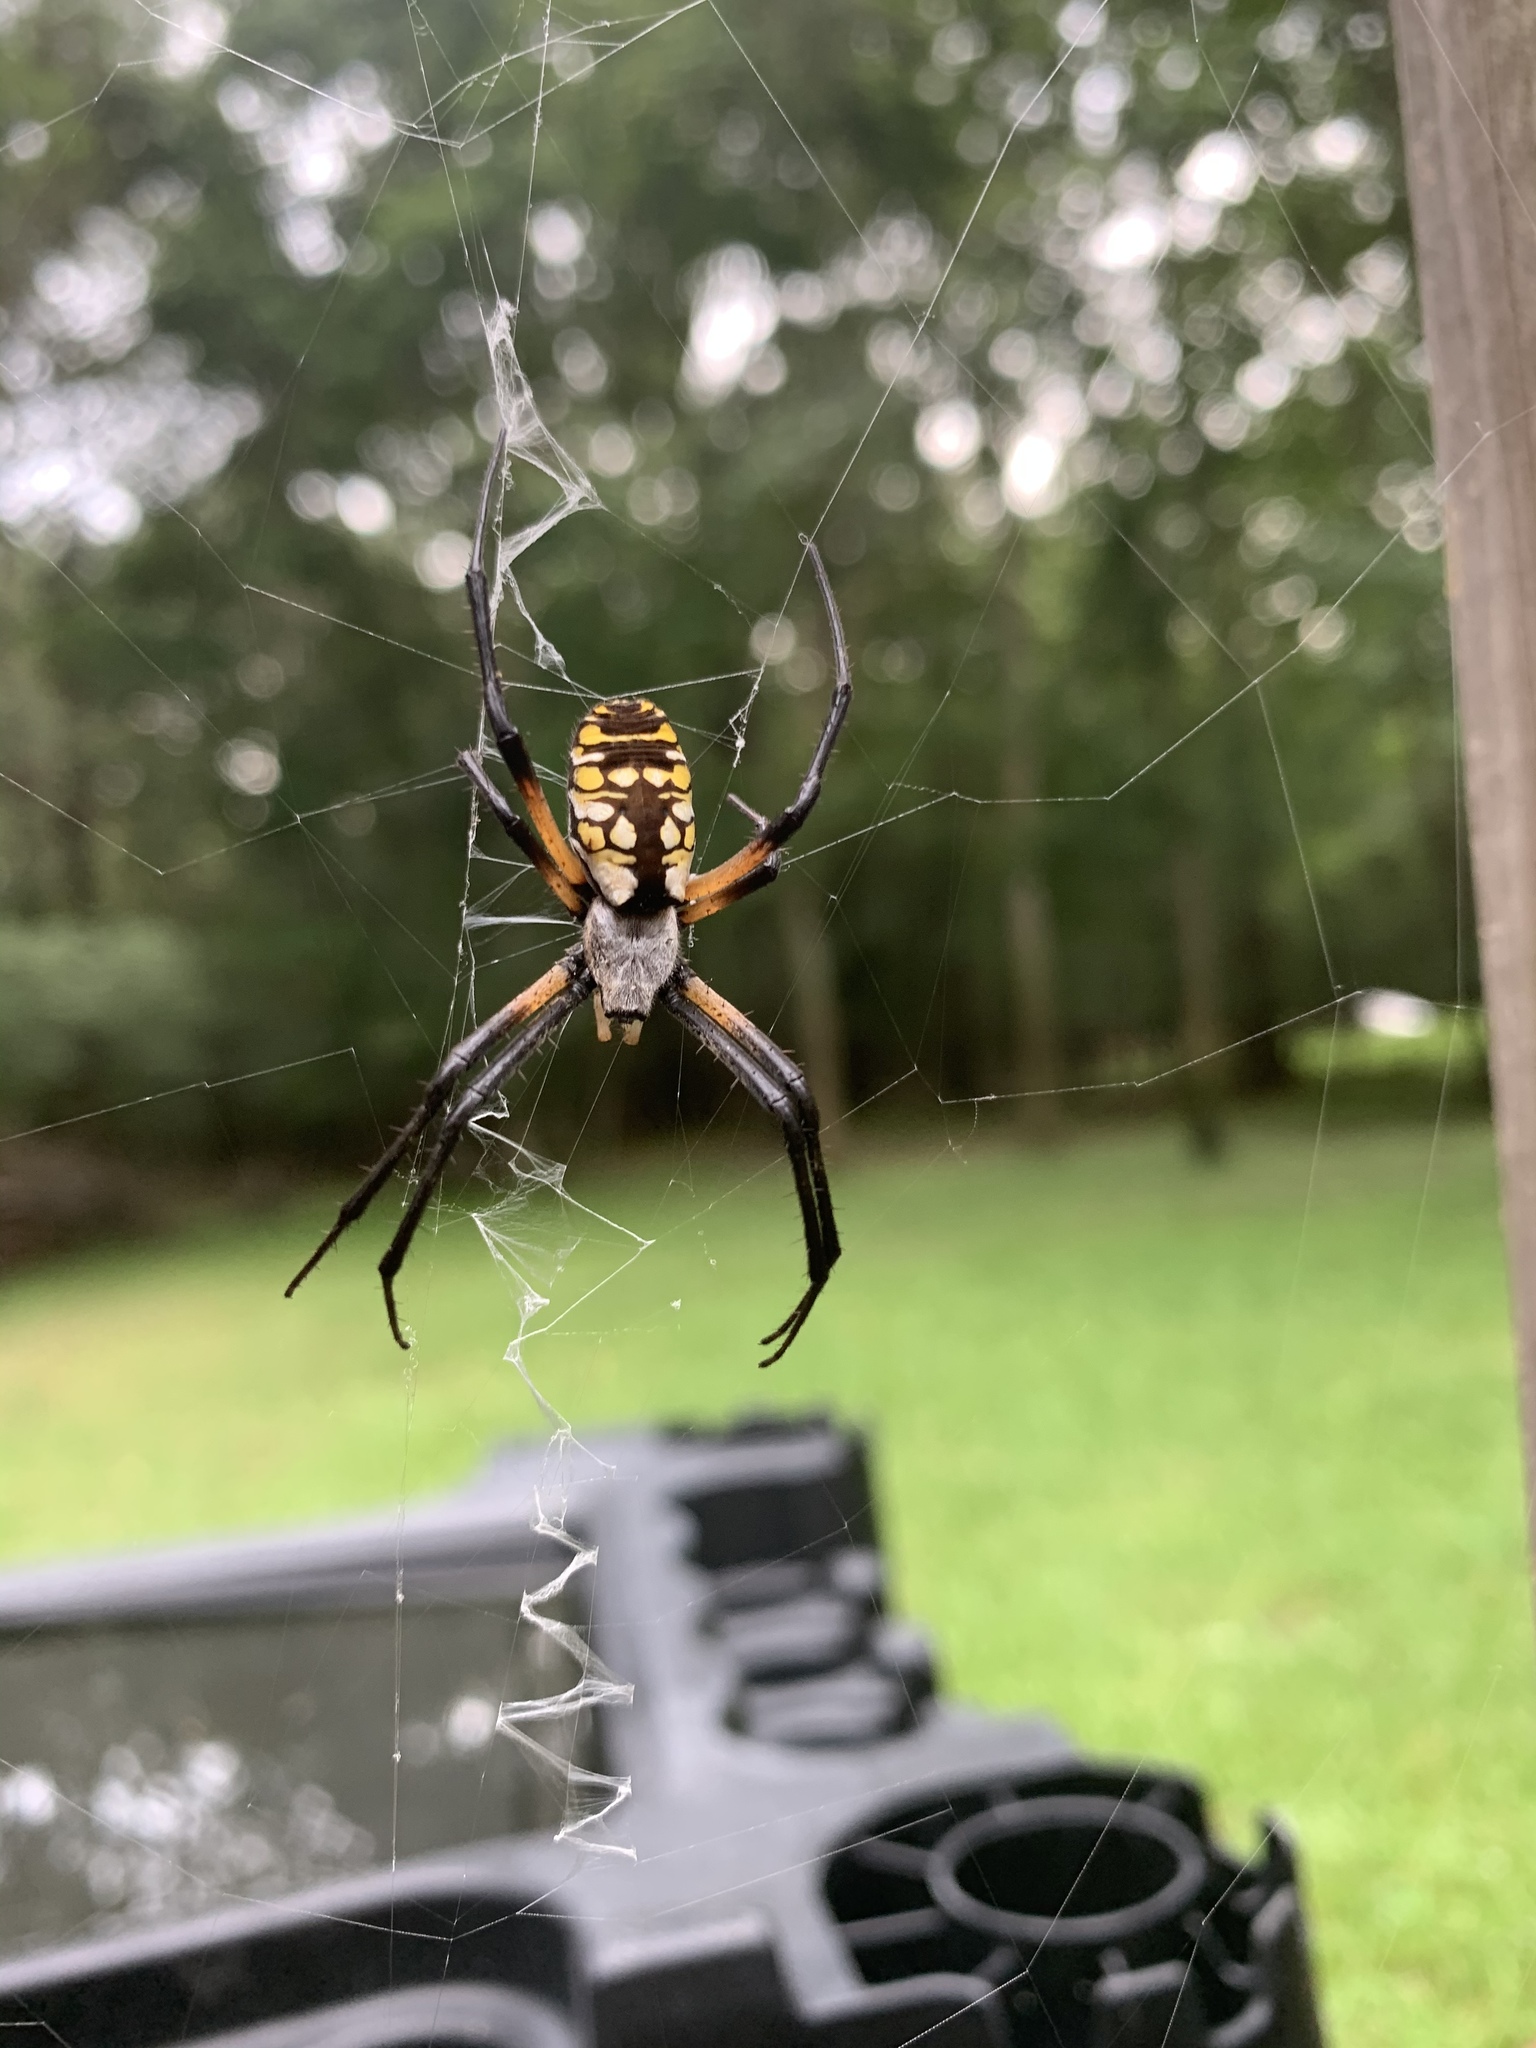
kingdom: Animalia
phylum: Arthropoda
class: Arachnida
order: Araneae
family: Araneidae
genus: Argiope
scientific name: Argiope aurantia
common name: Orb weavers
